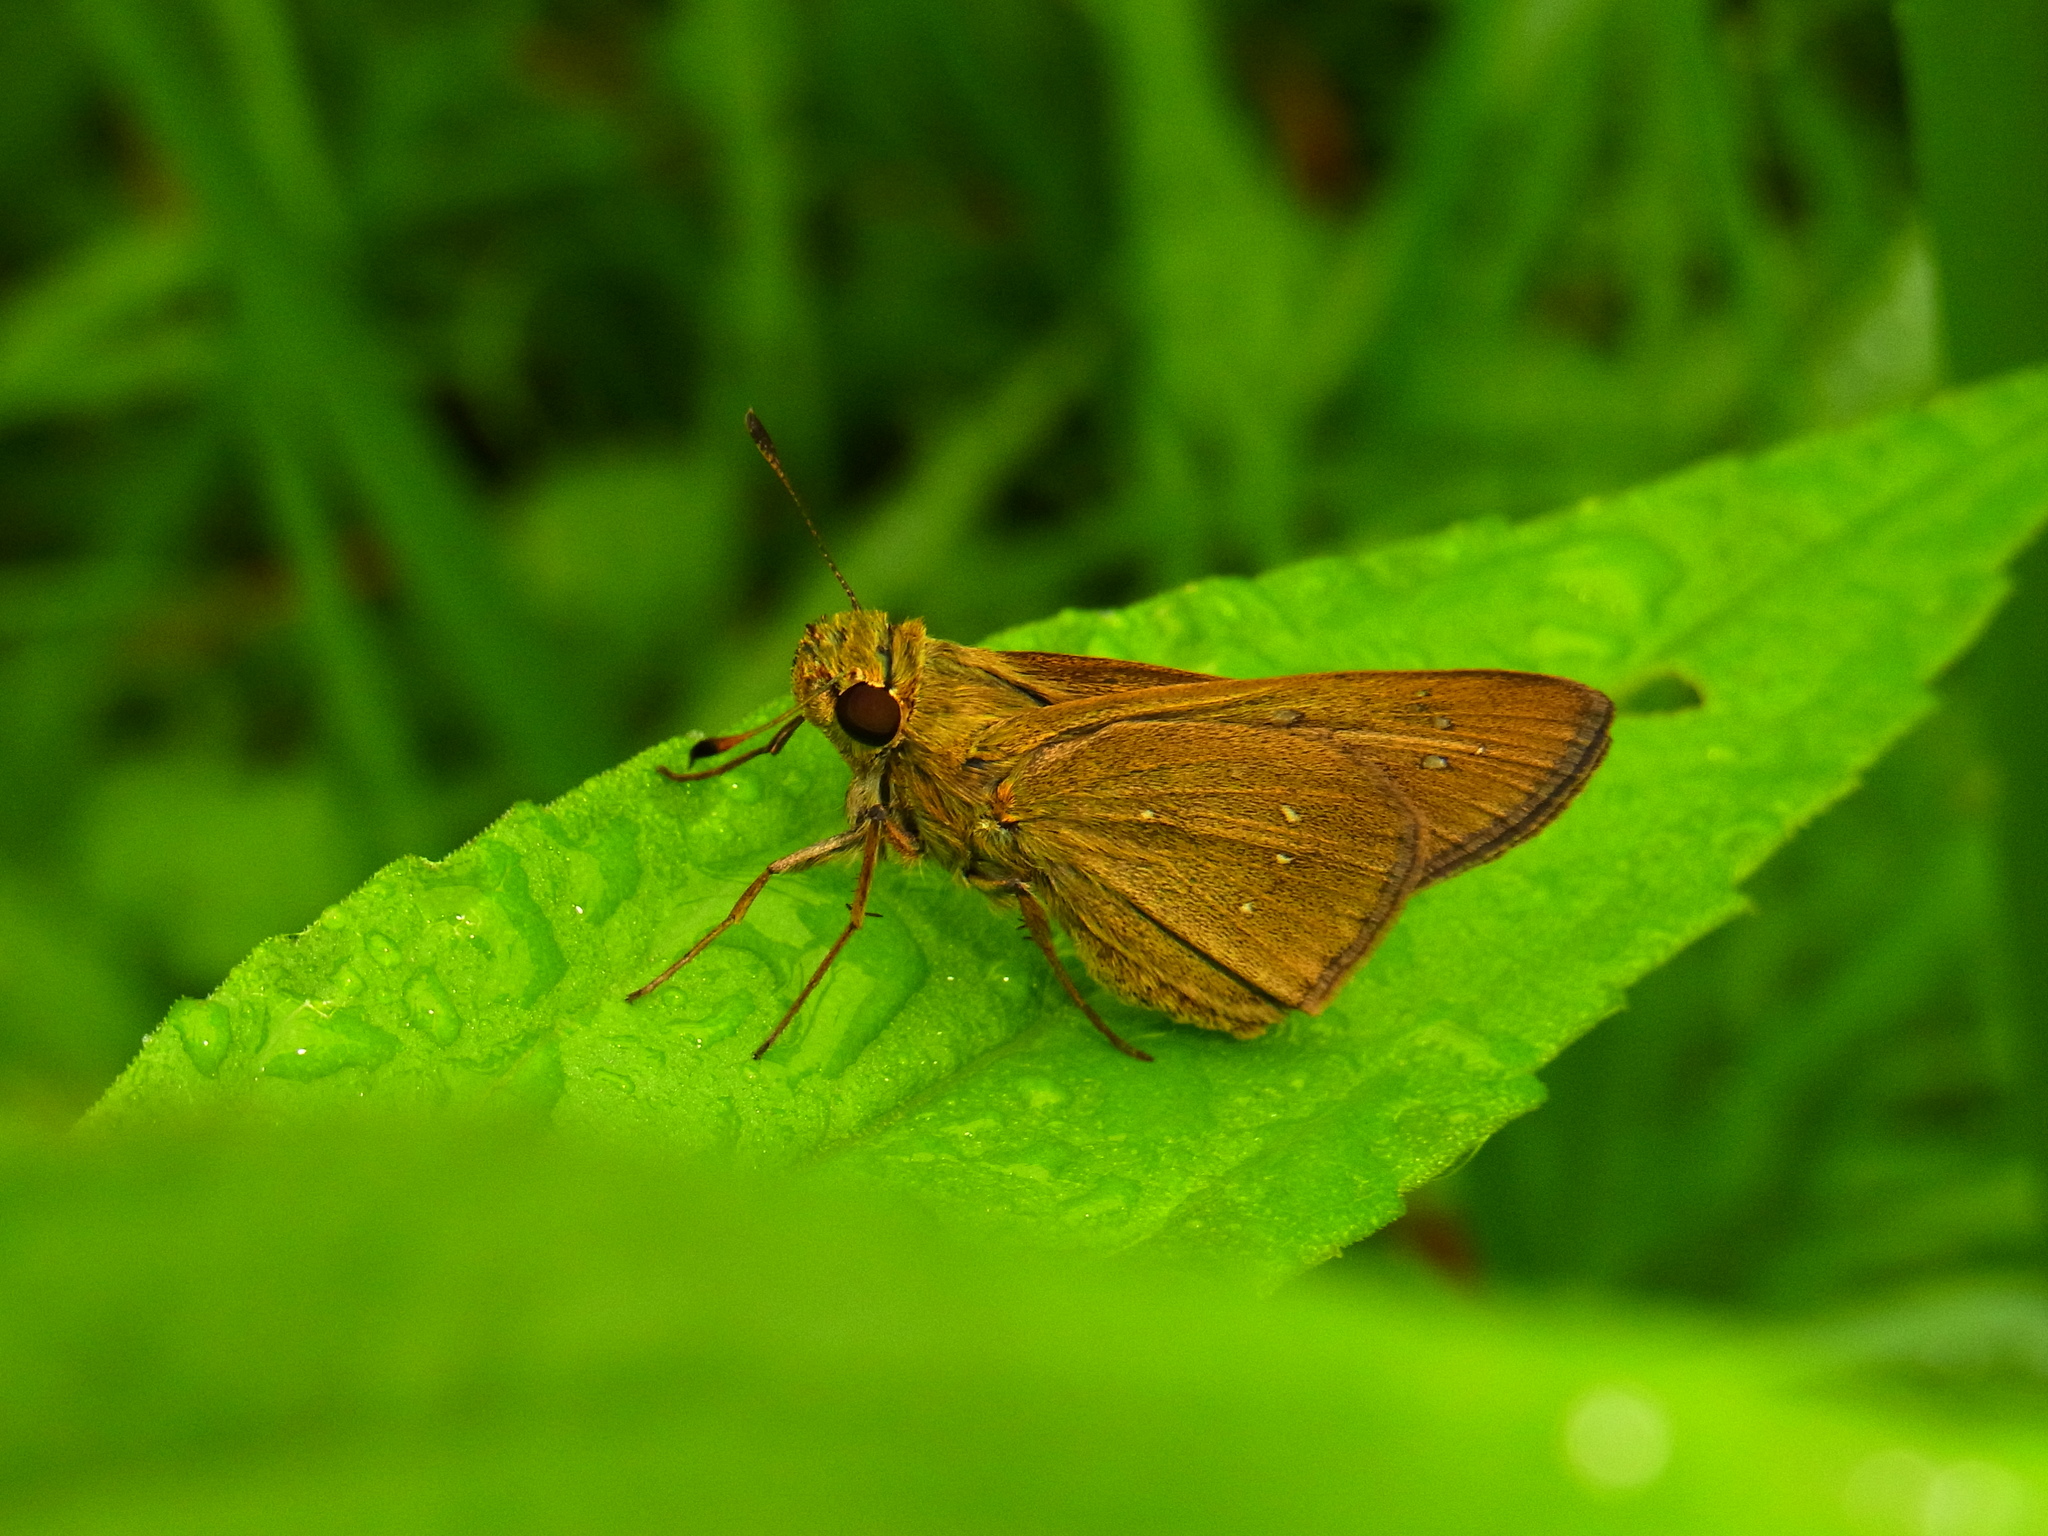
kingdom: Animalia
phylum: Arthropoda
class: Insecta
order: Lepidoptera
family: Hesperiidae
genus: Pelopidas
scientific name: Pelopidas mathias
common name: Black-branded swift
